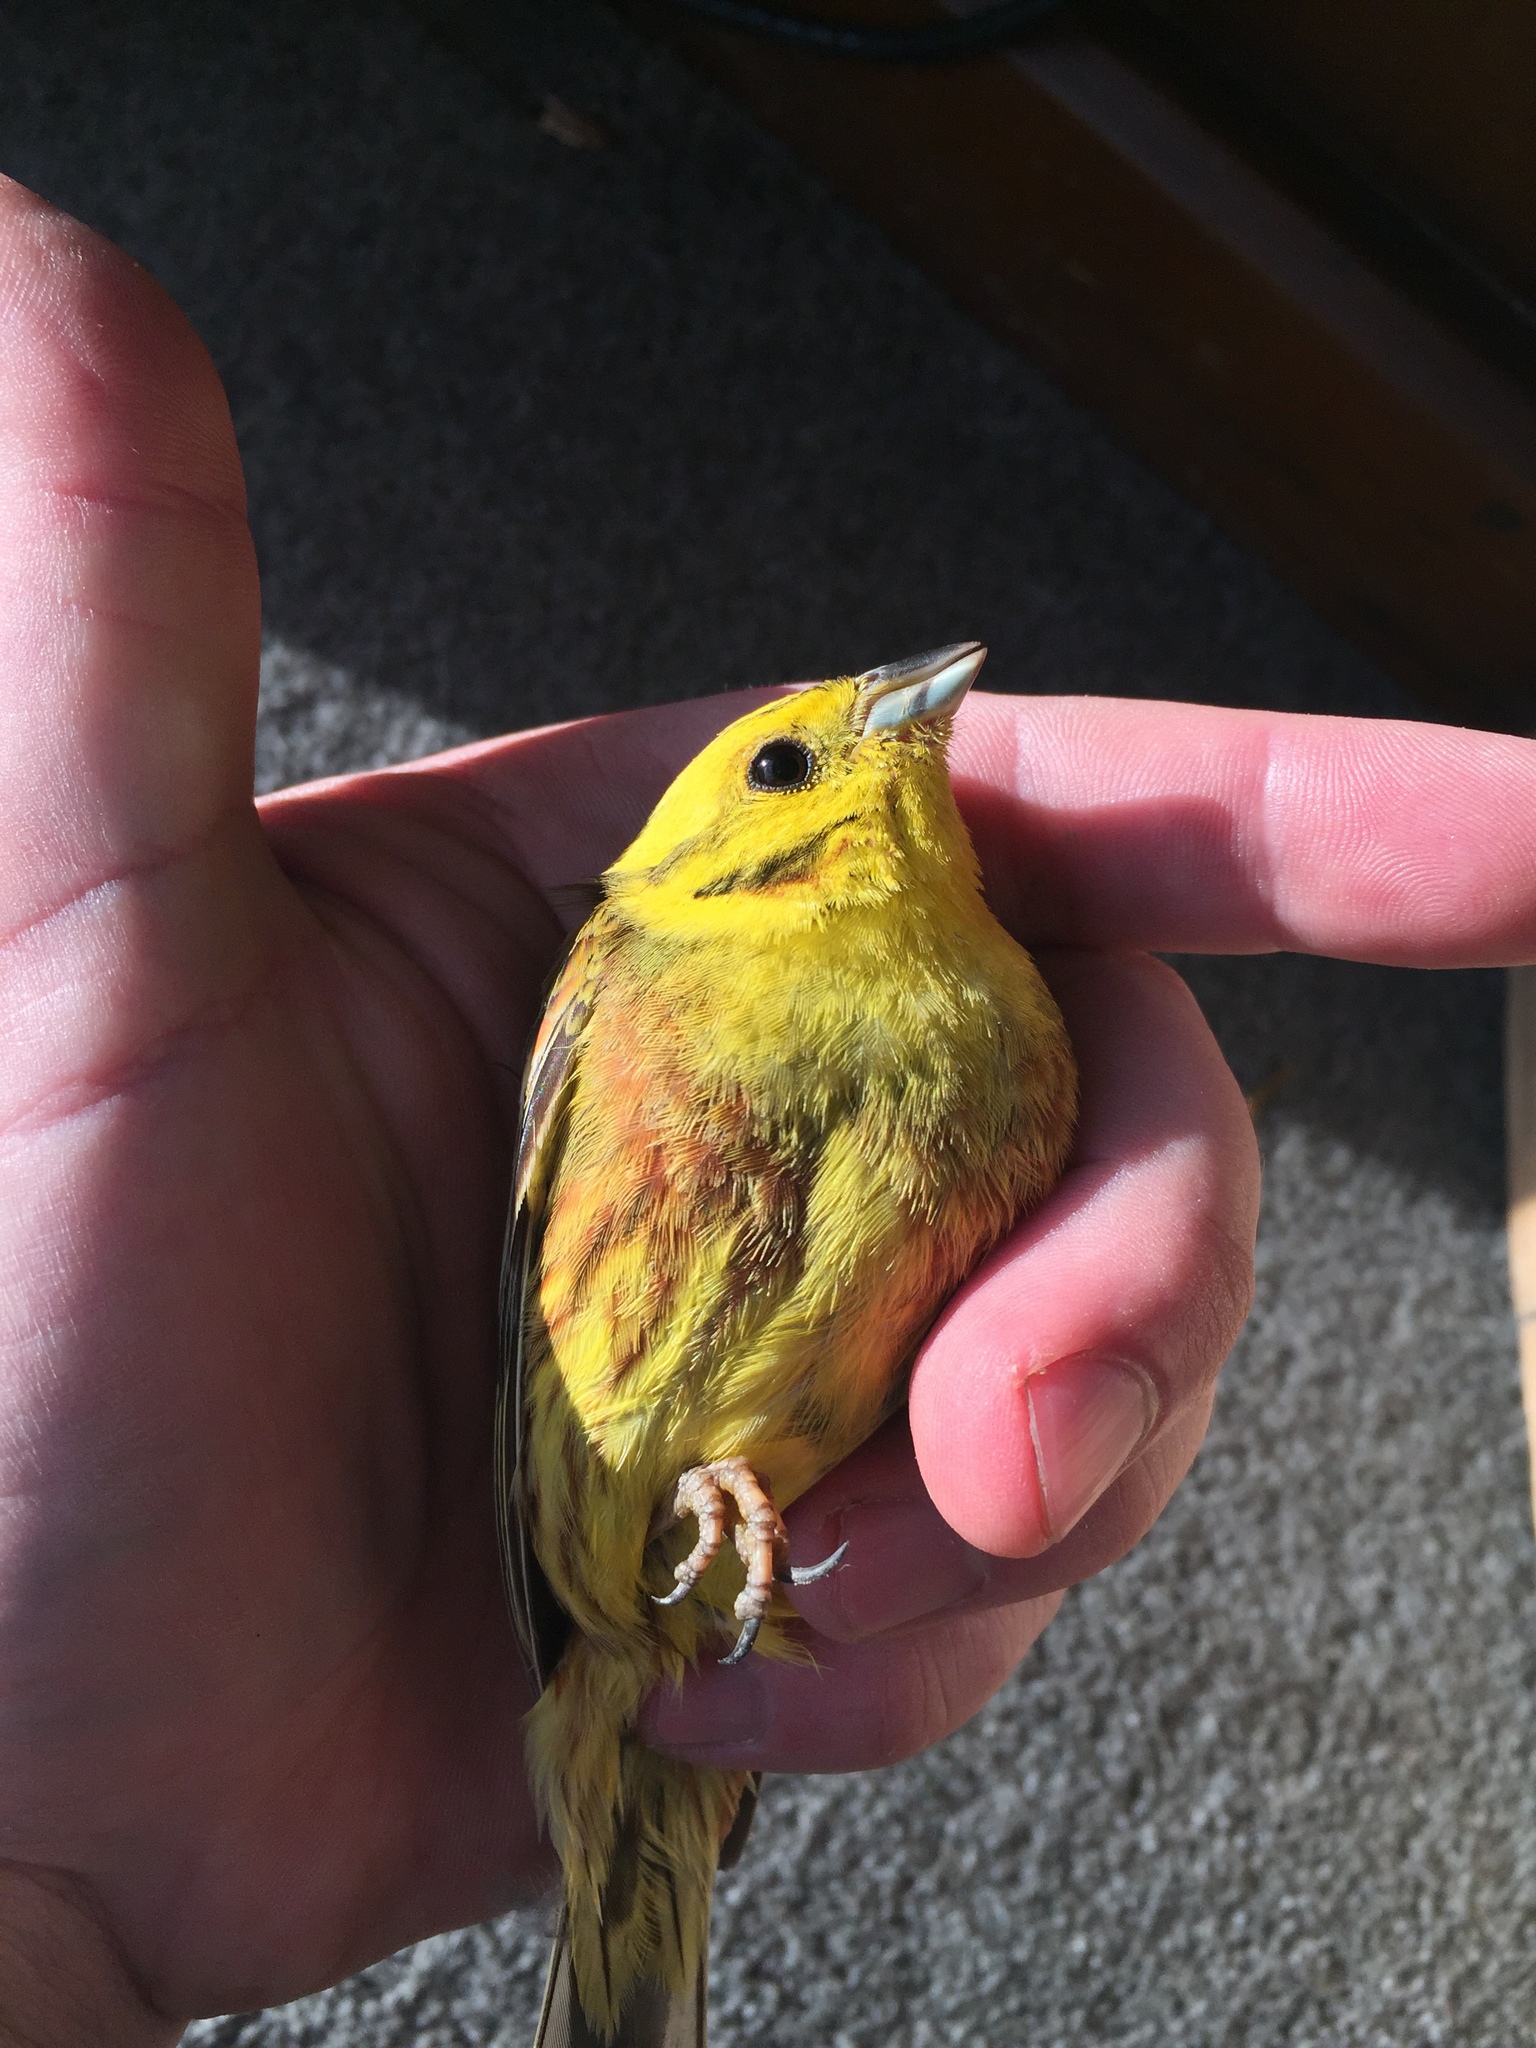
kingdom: Animalia
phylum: Chordata
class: Aves
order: Passeriformes
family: Emberizidae
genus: Emberiza
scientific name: Emberiza citrinella
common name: Yellowhammer
